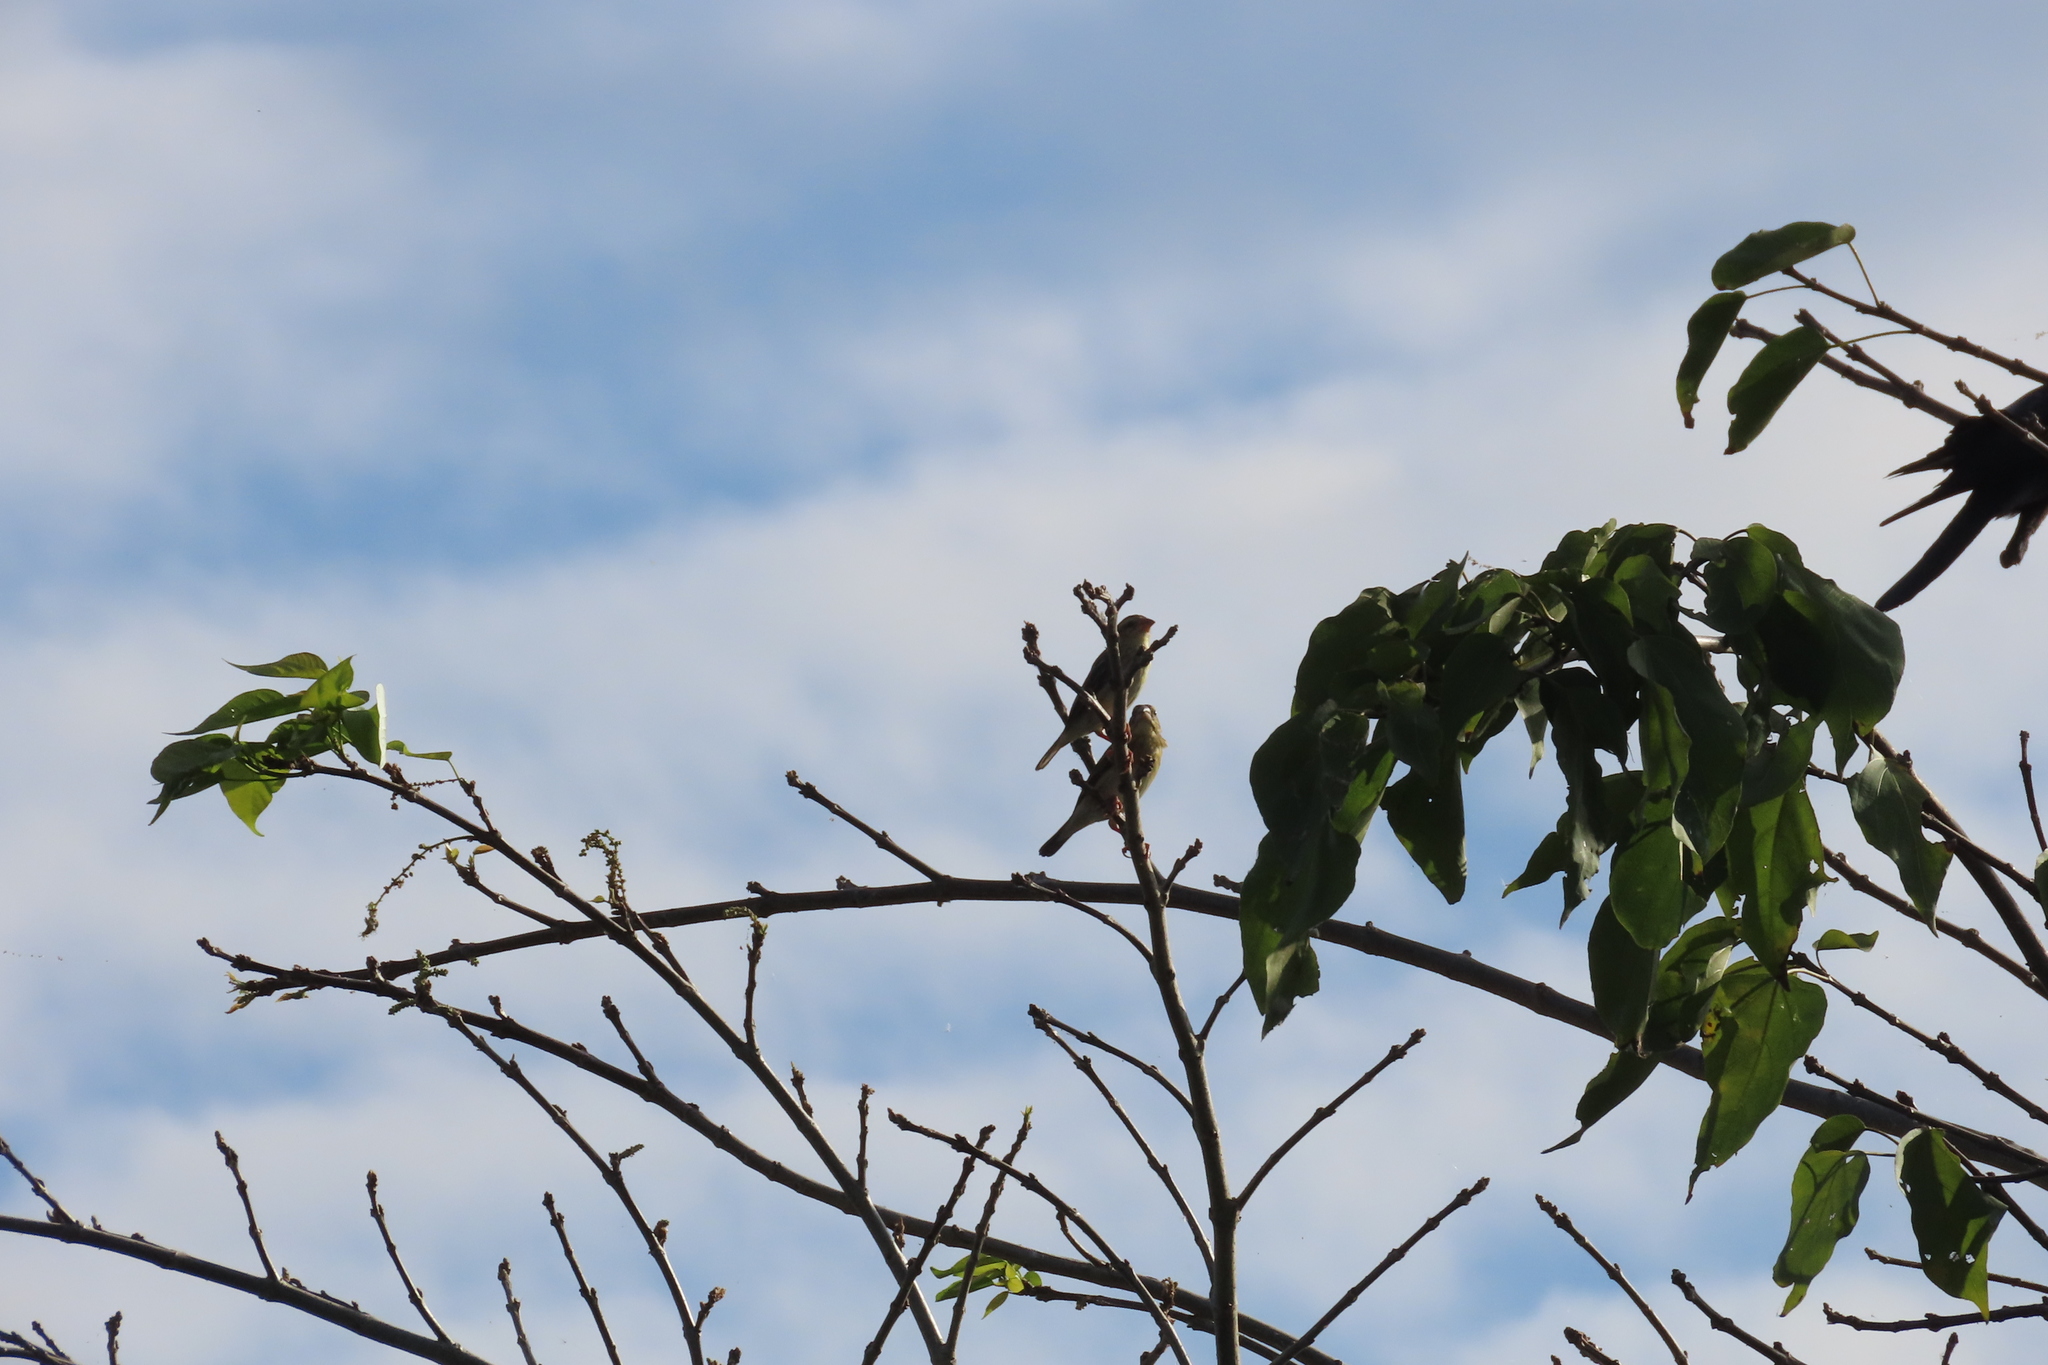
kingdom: Animalia
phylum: Chordata
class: Aves
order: Passeriformes
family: Ploceidae
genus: Ploceus
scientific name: Ploceus philippinus
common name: Baya weaver
